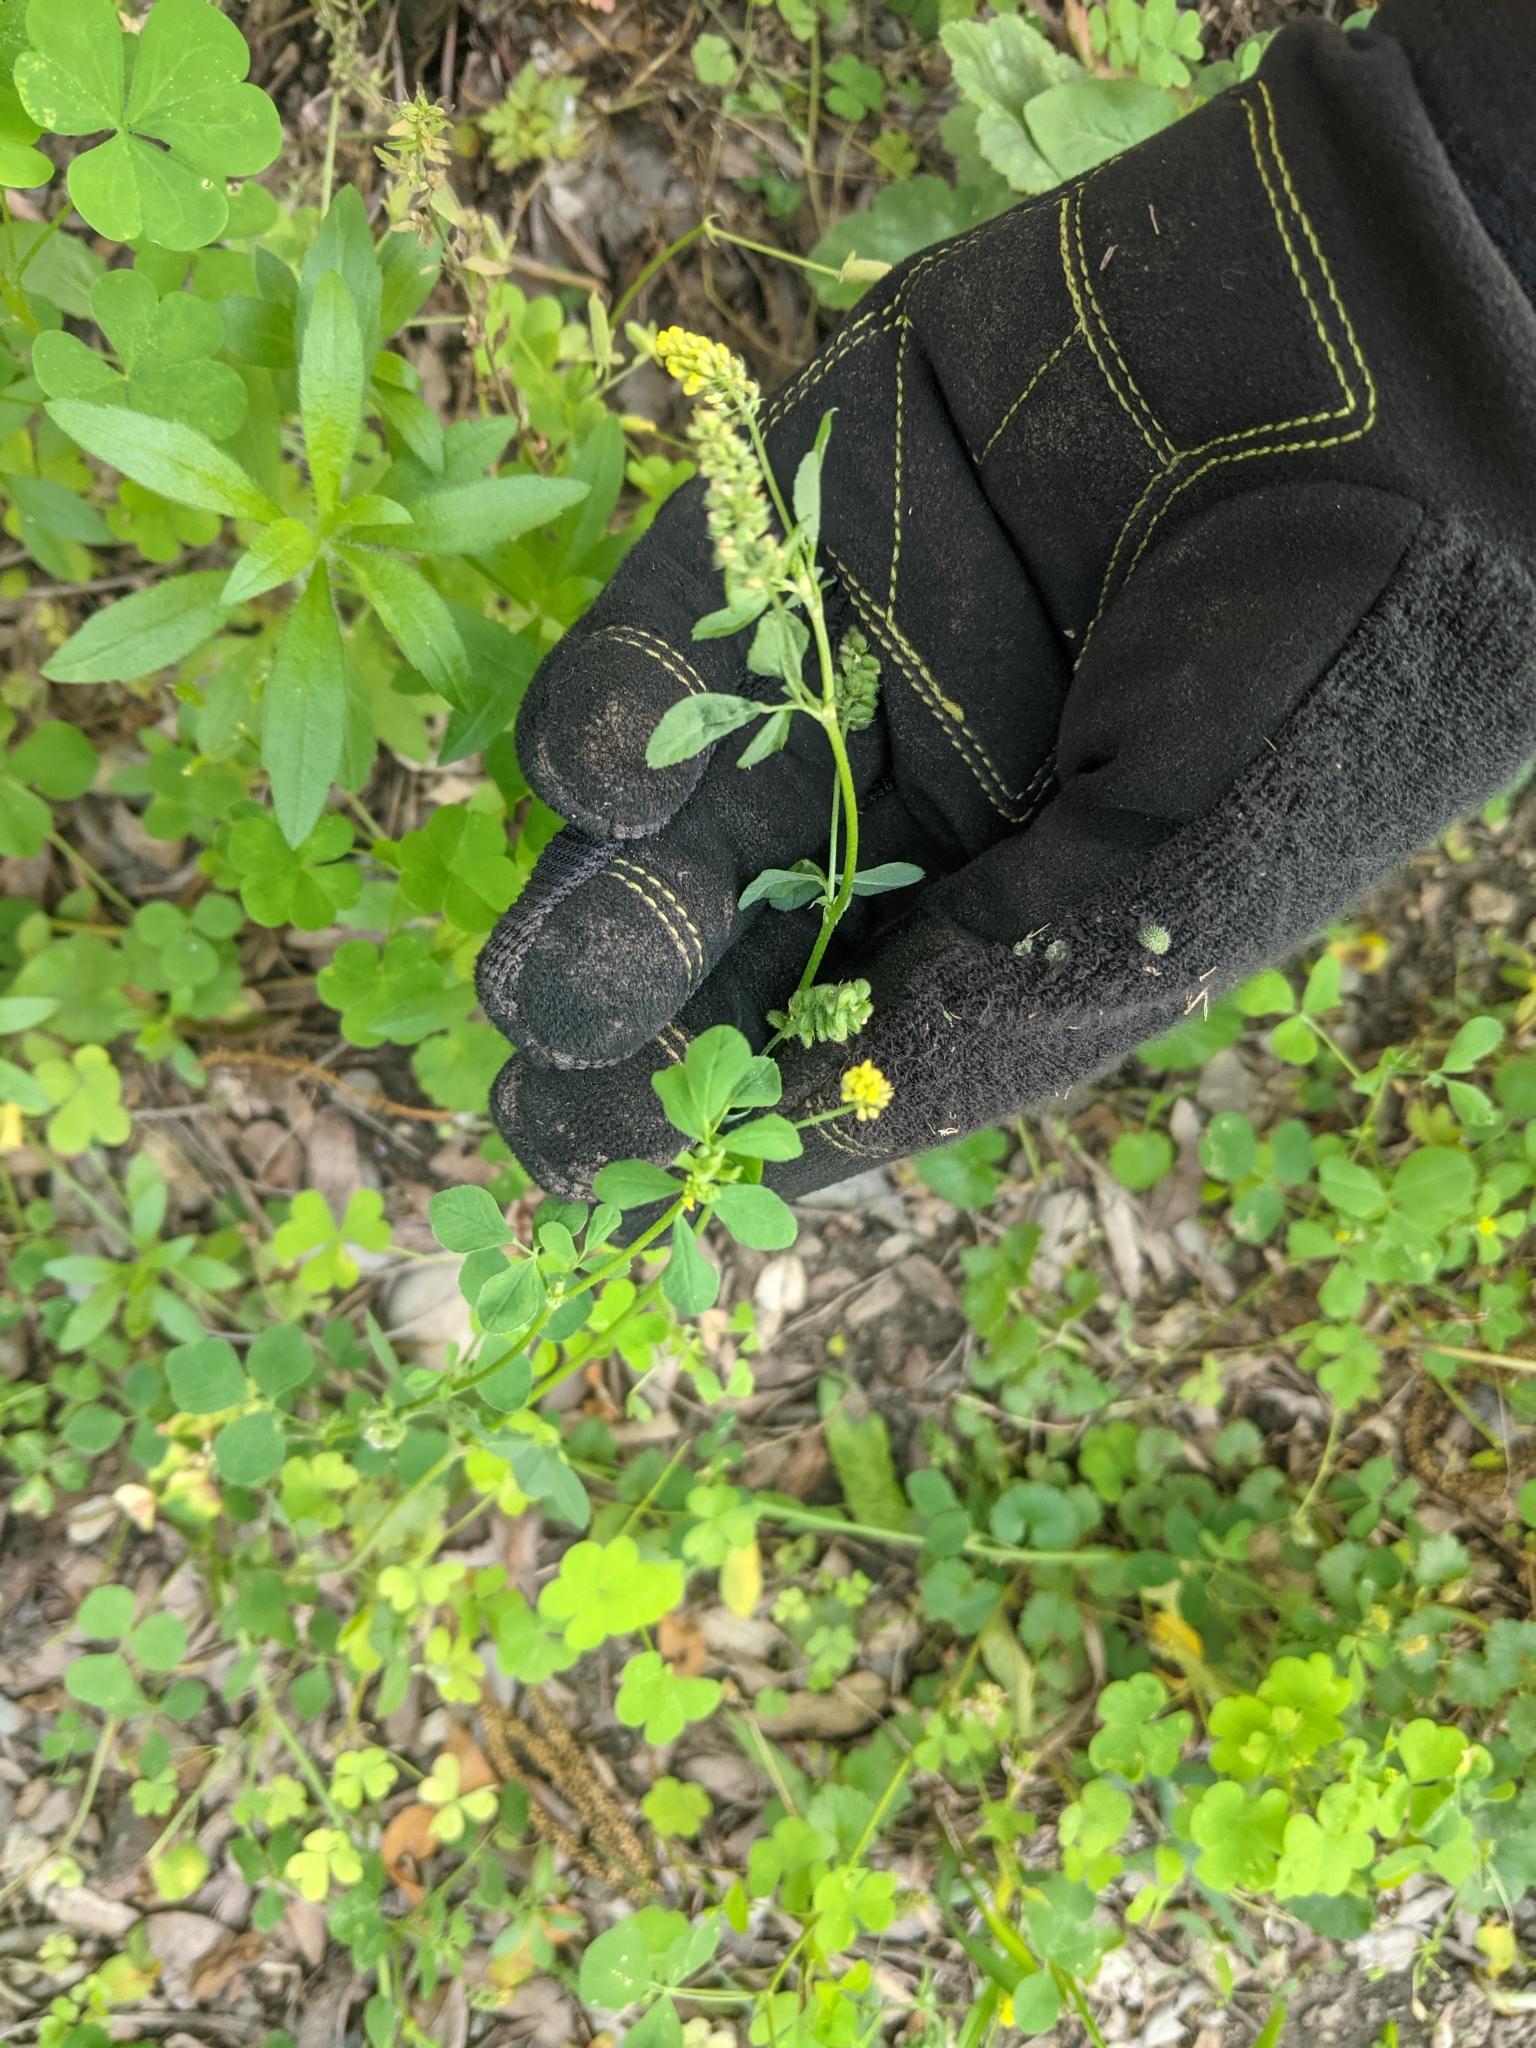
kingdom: Plantae
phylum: Tracheophyta
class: Magnoliopsida
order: Fabales
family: Fabaceae
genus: Medicago
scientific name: Medicago lupulina
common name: Black medick
